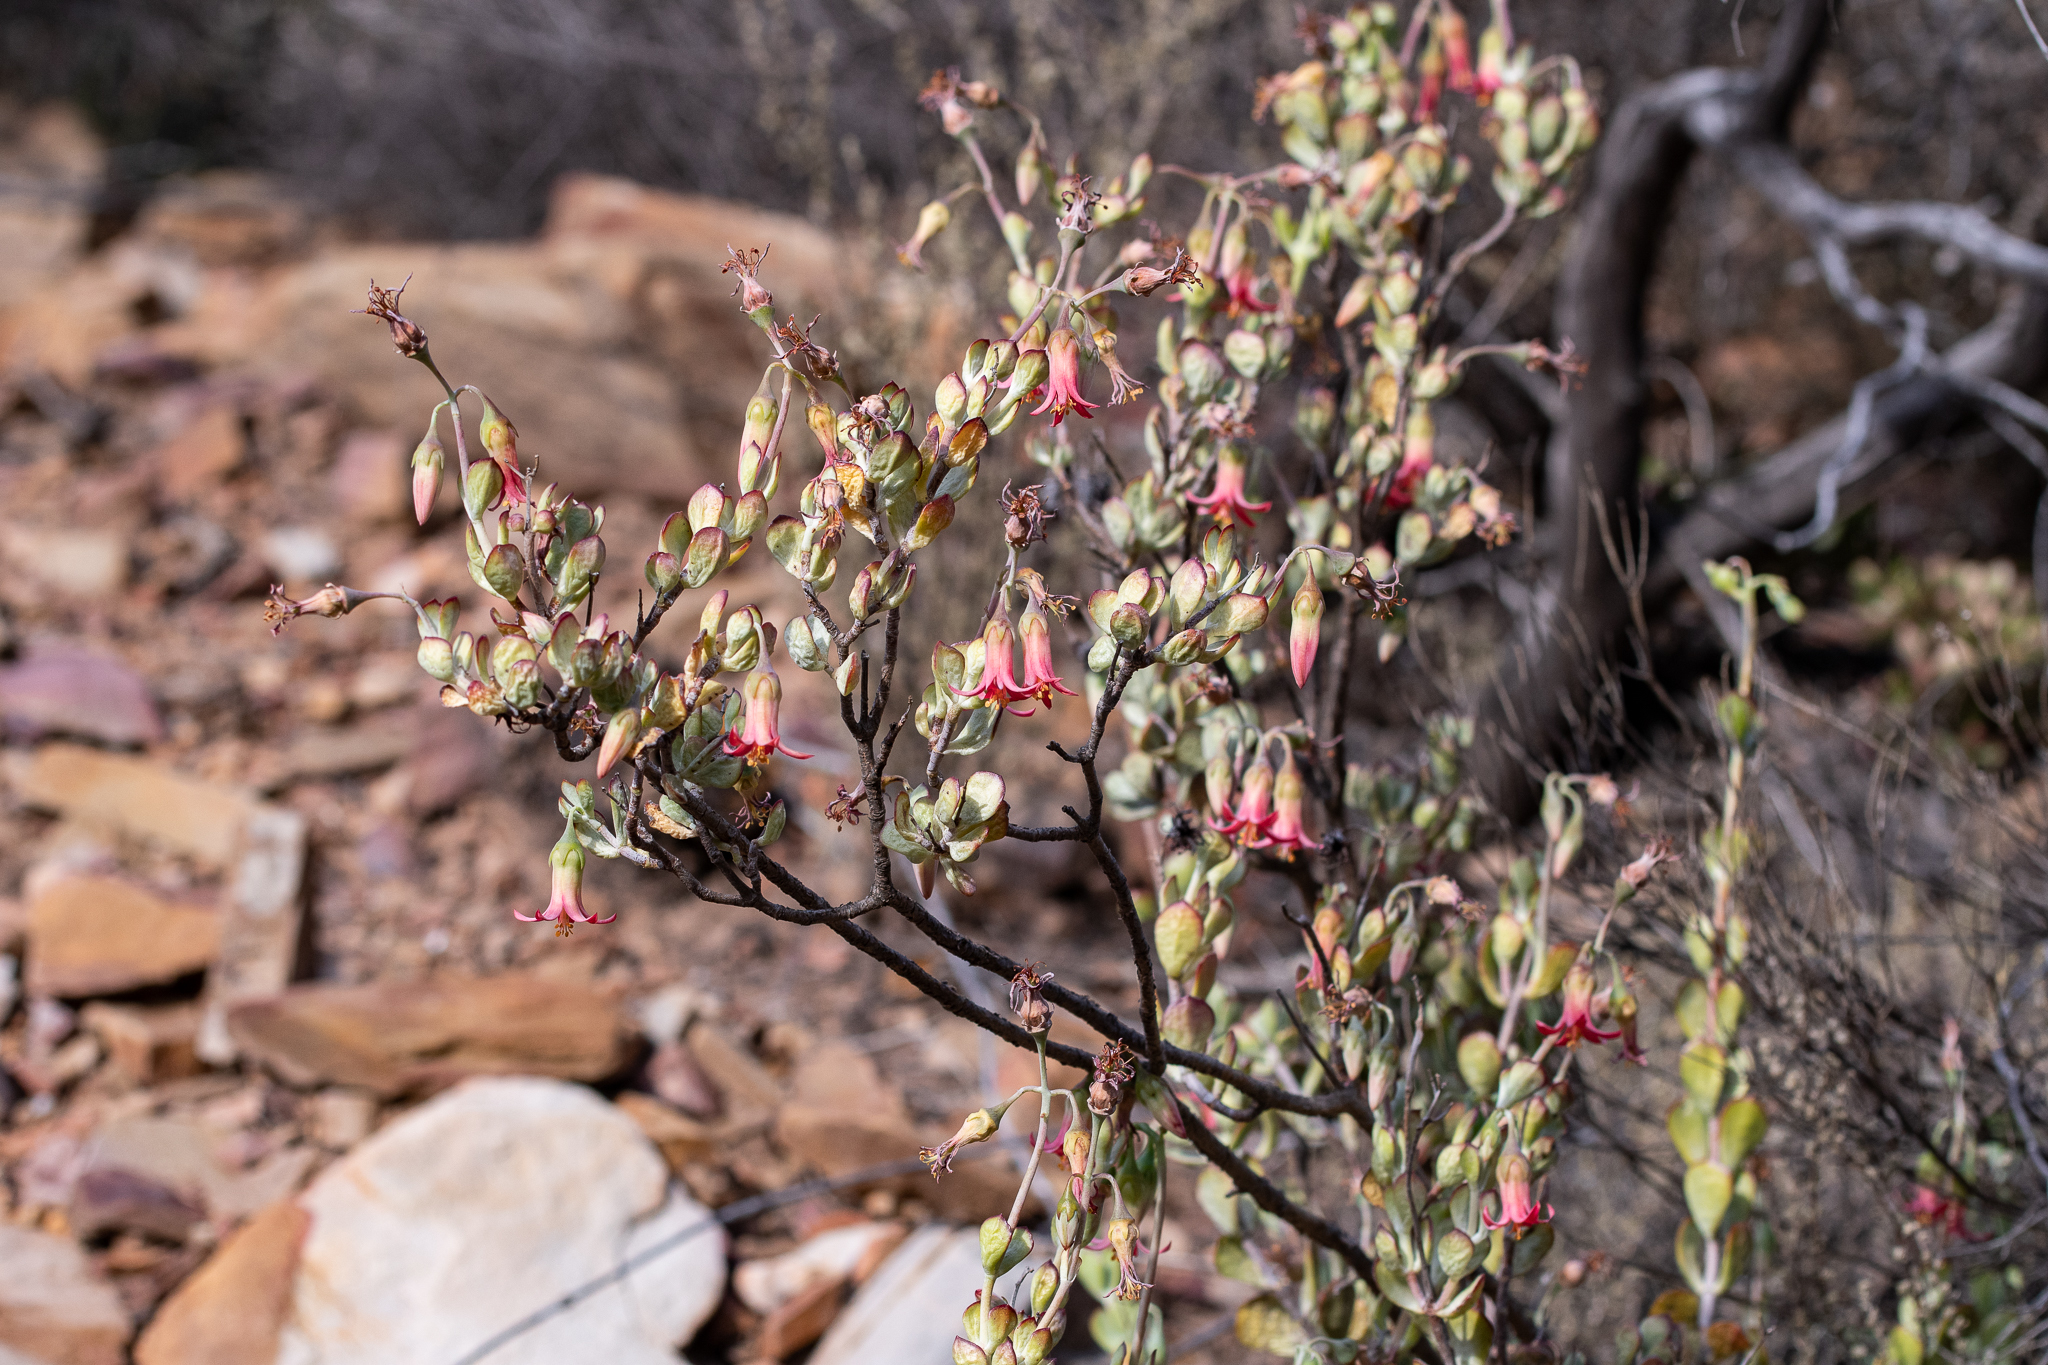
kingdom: Plantae
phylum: Tracheophyta
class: Magnoliopsida
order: Saxifragales
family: Crassulaceae
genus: Cotyledon
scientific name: Cotyledon woodii
